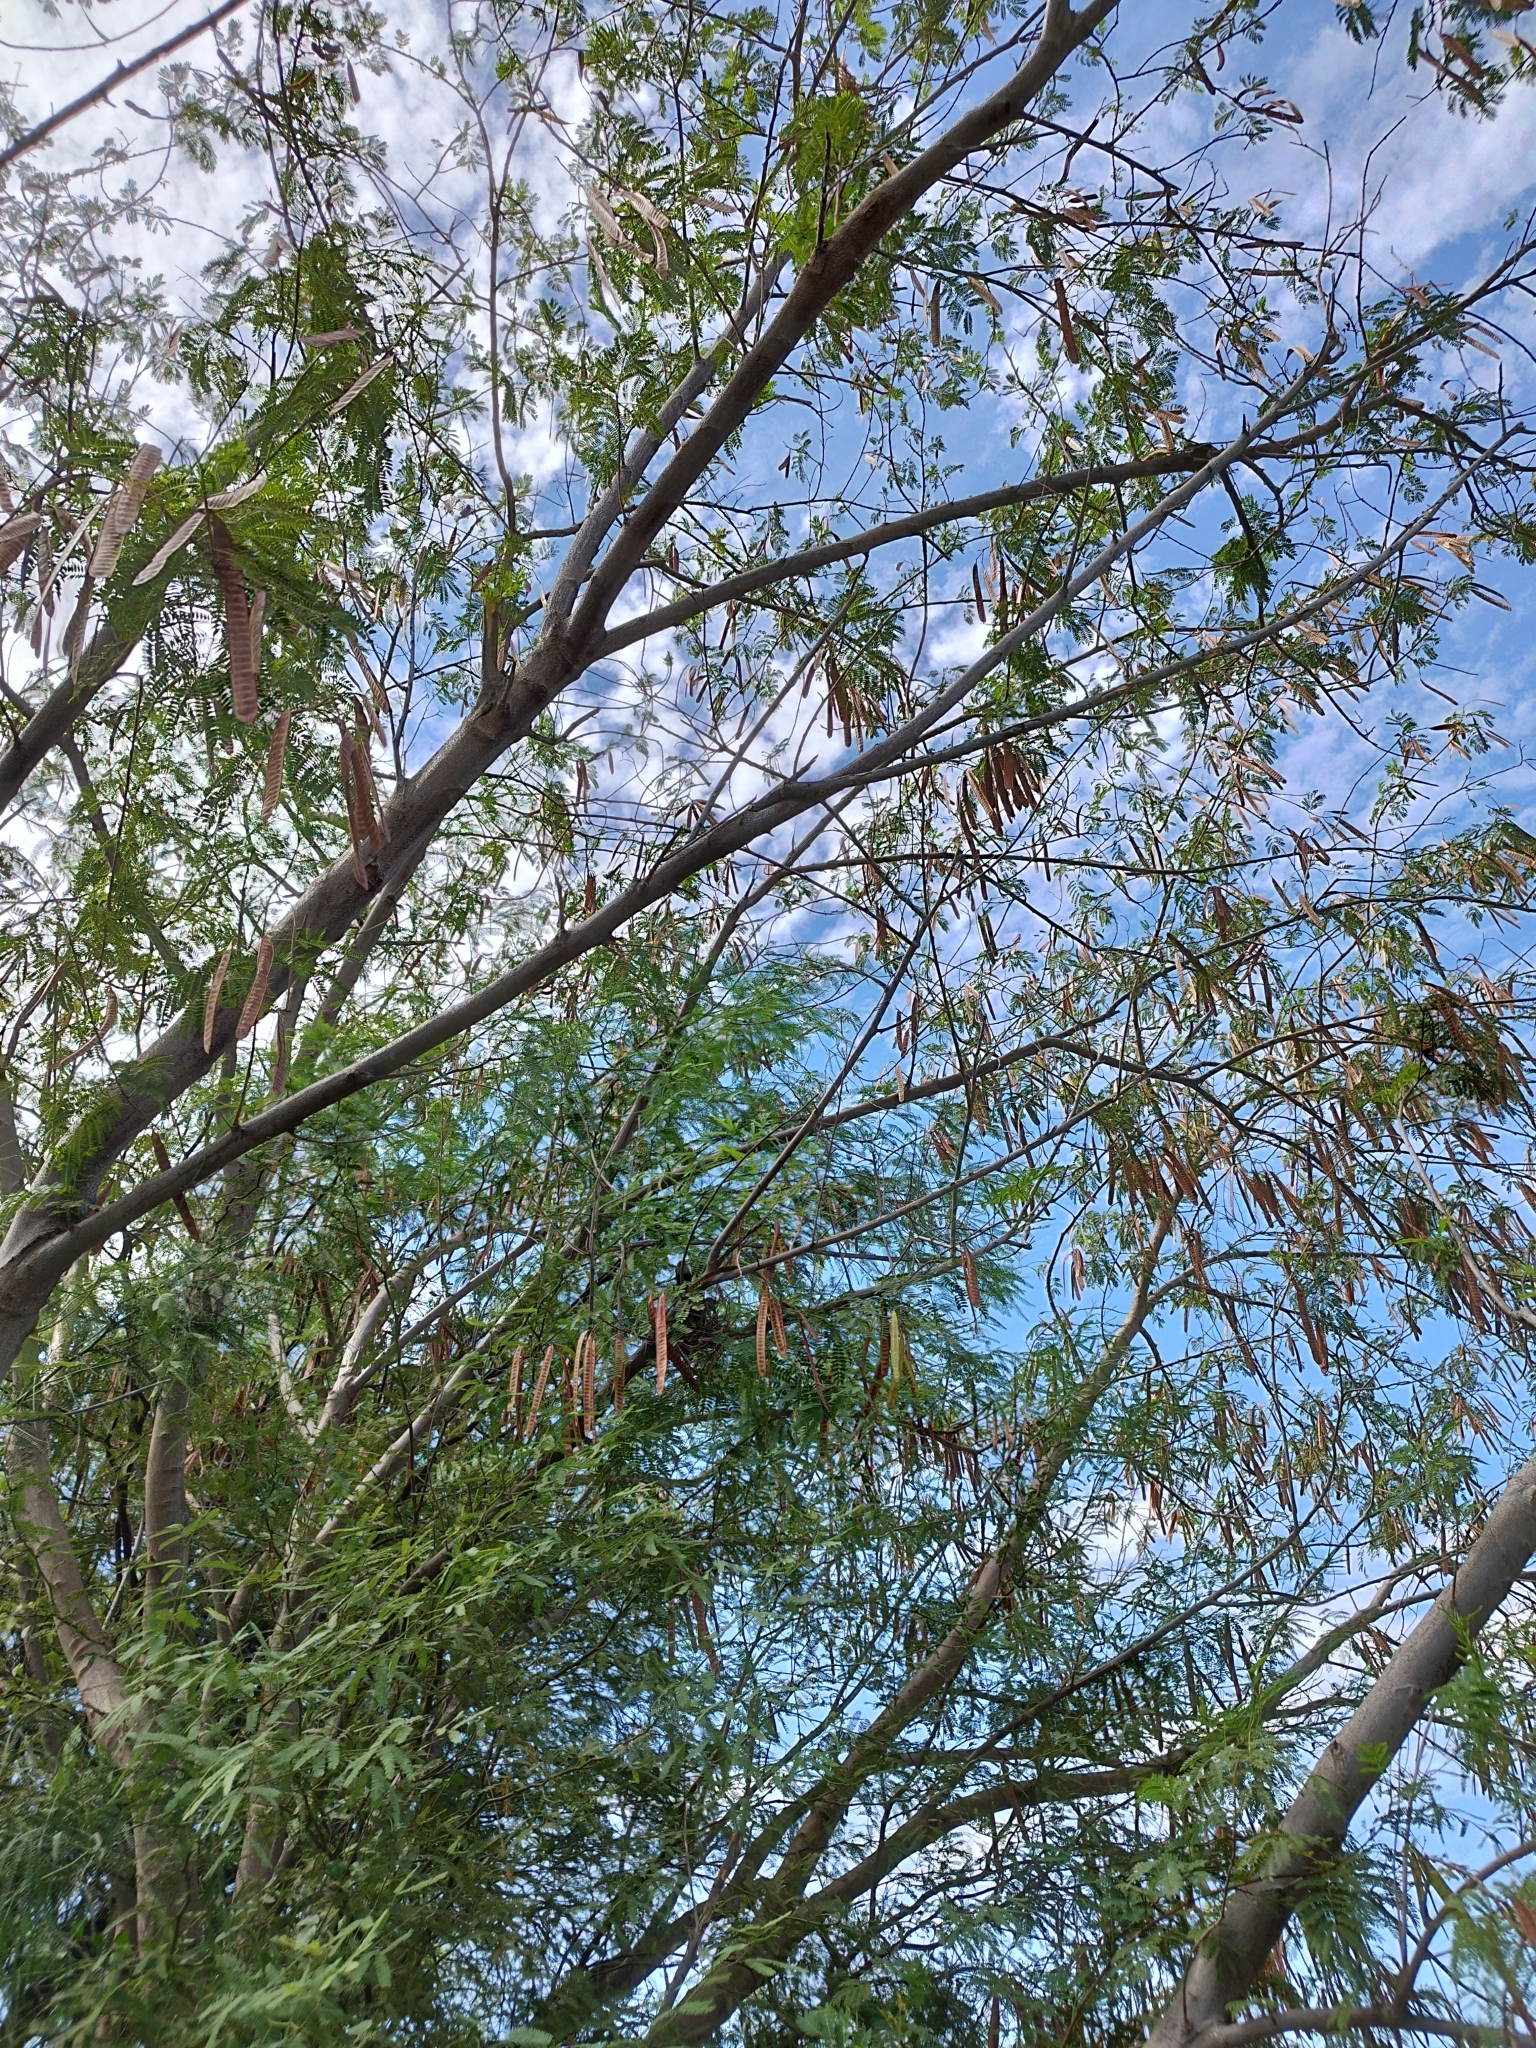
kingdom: Plantae
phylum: Tracheophyta
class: Magnoliopsida
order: Fabales
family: Fabaceae
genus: Leucaena
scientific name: Leucaena leucocephala
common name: White leadtree
